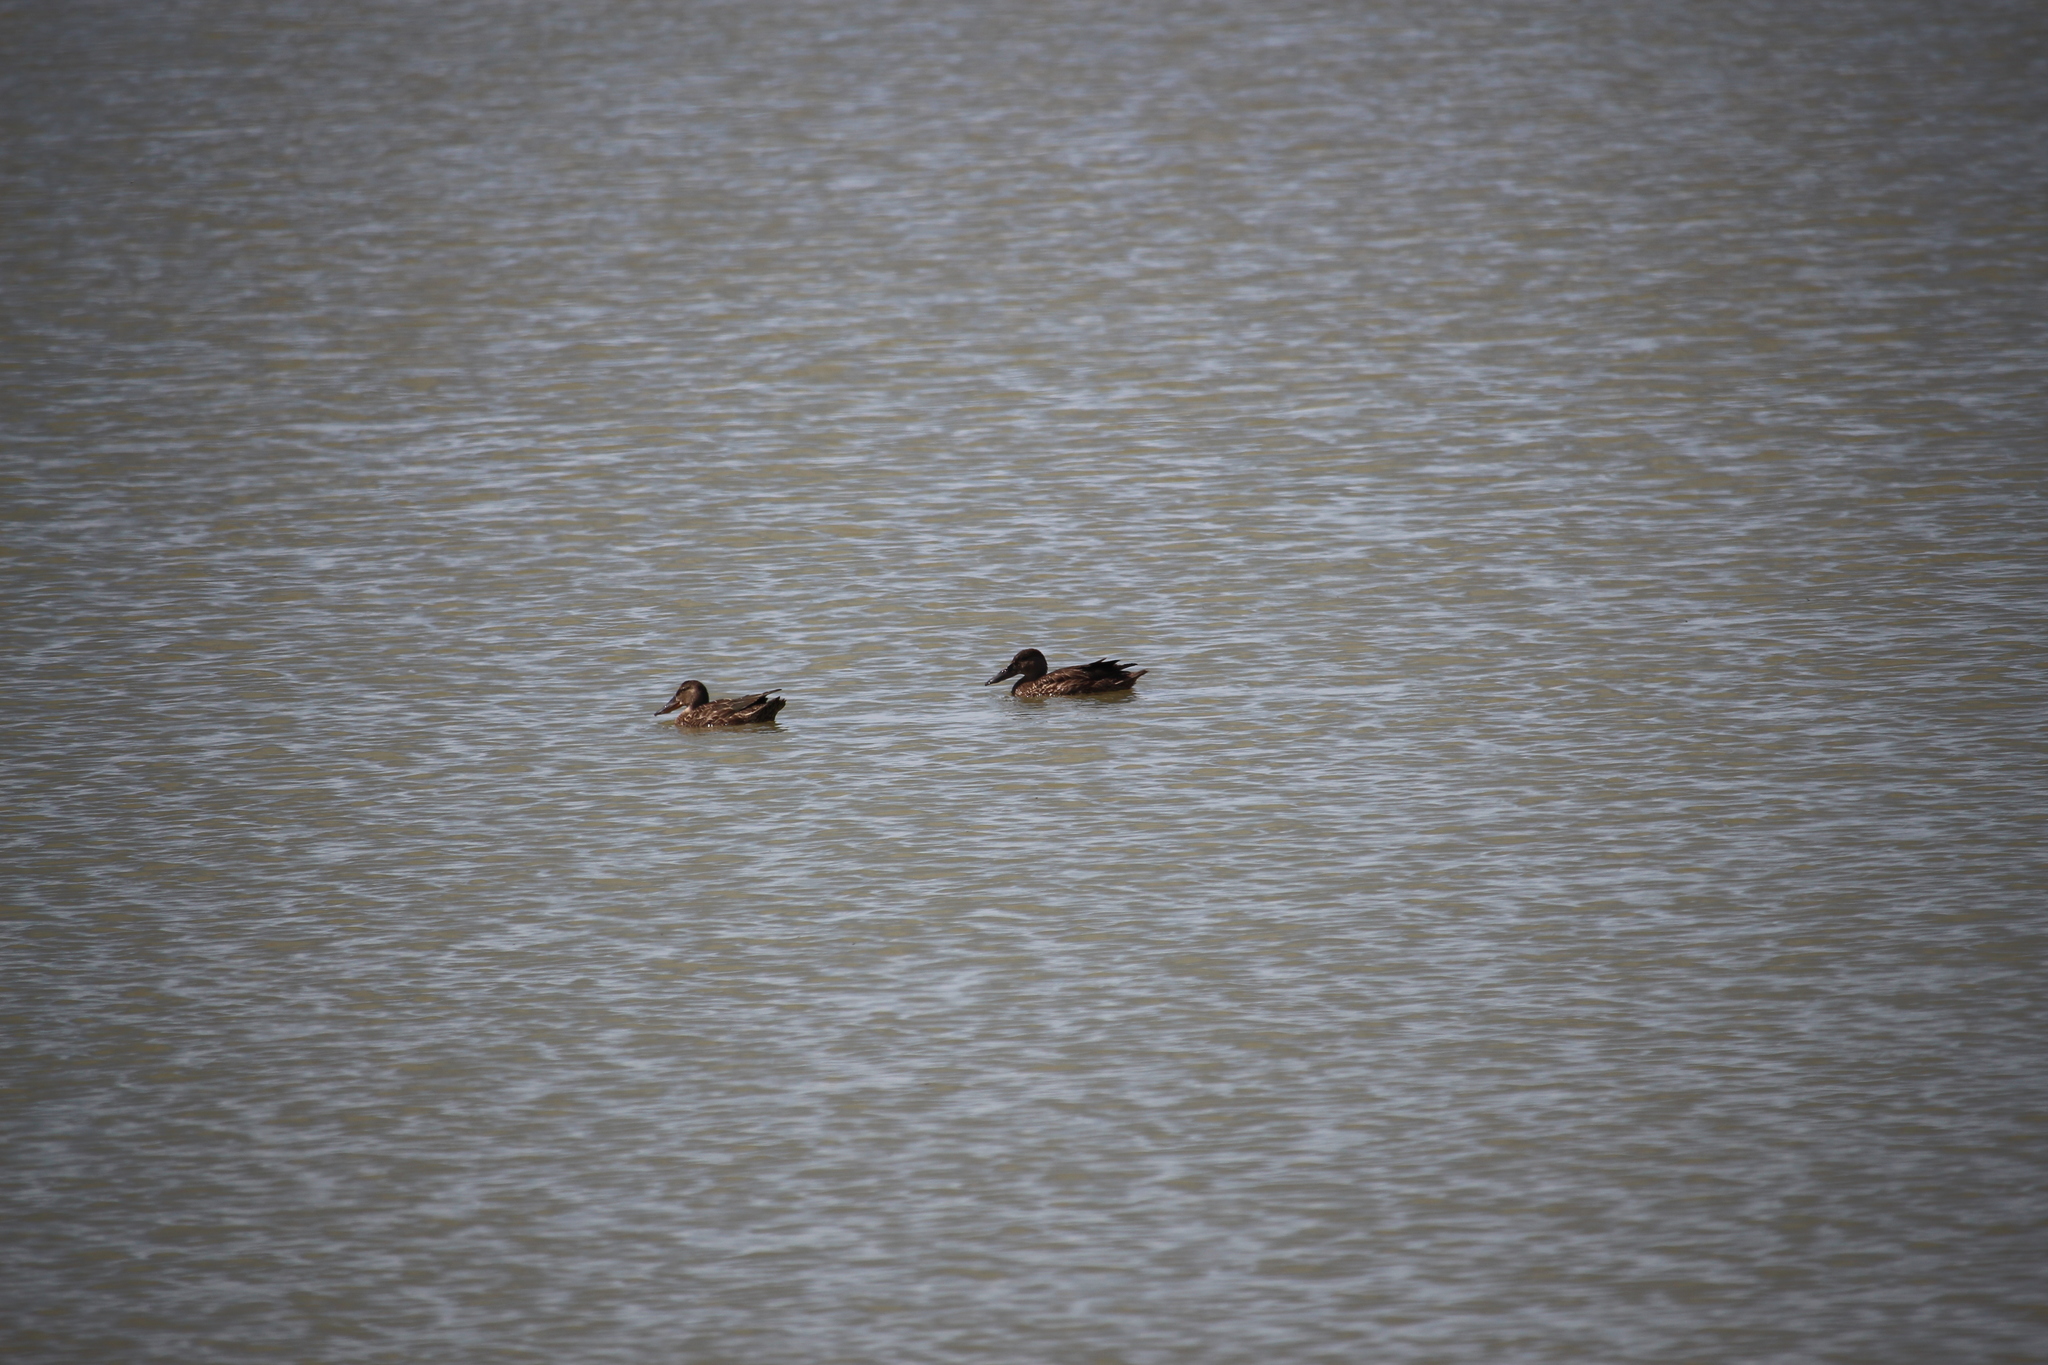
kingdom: Animalia
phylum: Chordata
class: Aves
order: Anseriformes
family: Anatidae
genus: Spatula
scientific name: Spatula rhynchotis
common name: Australian shoveler
